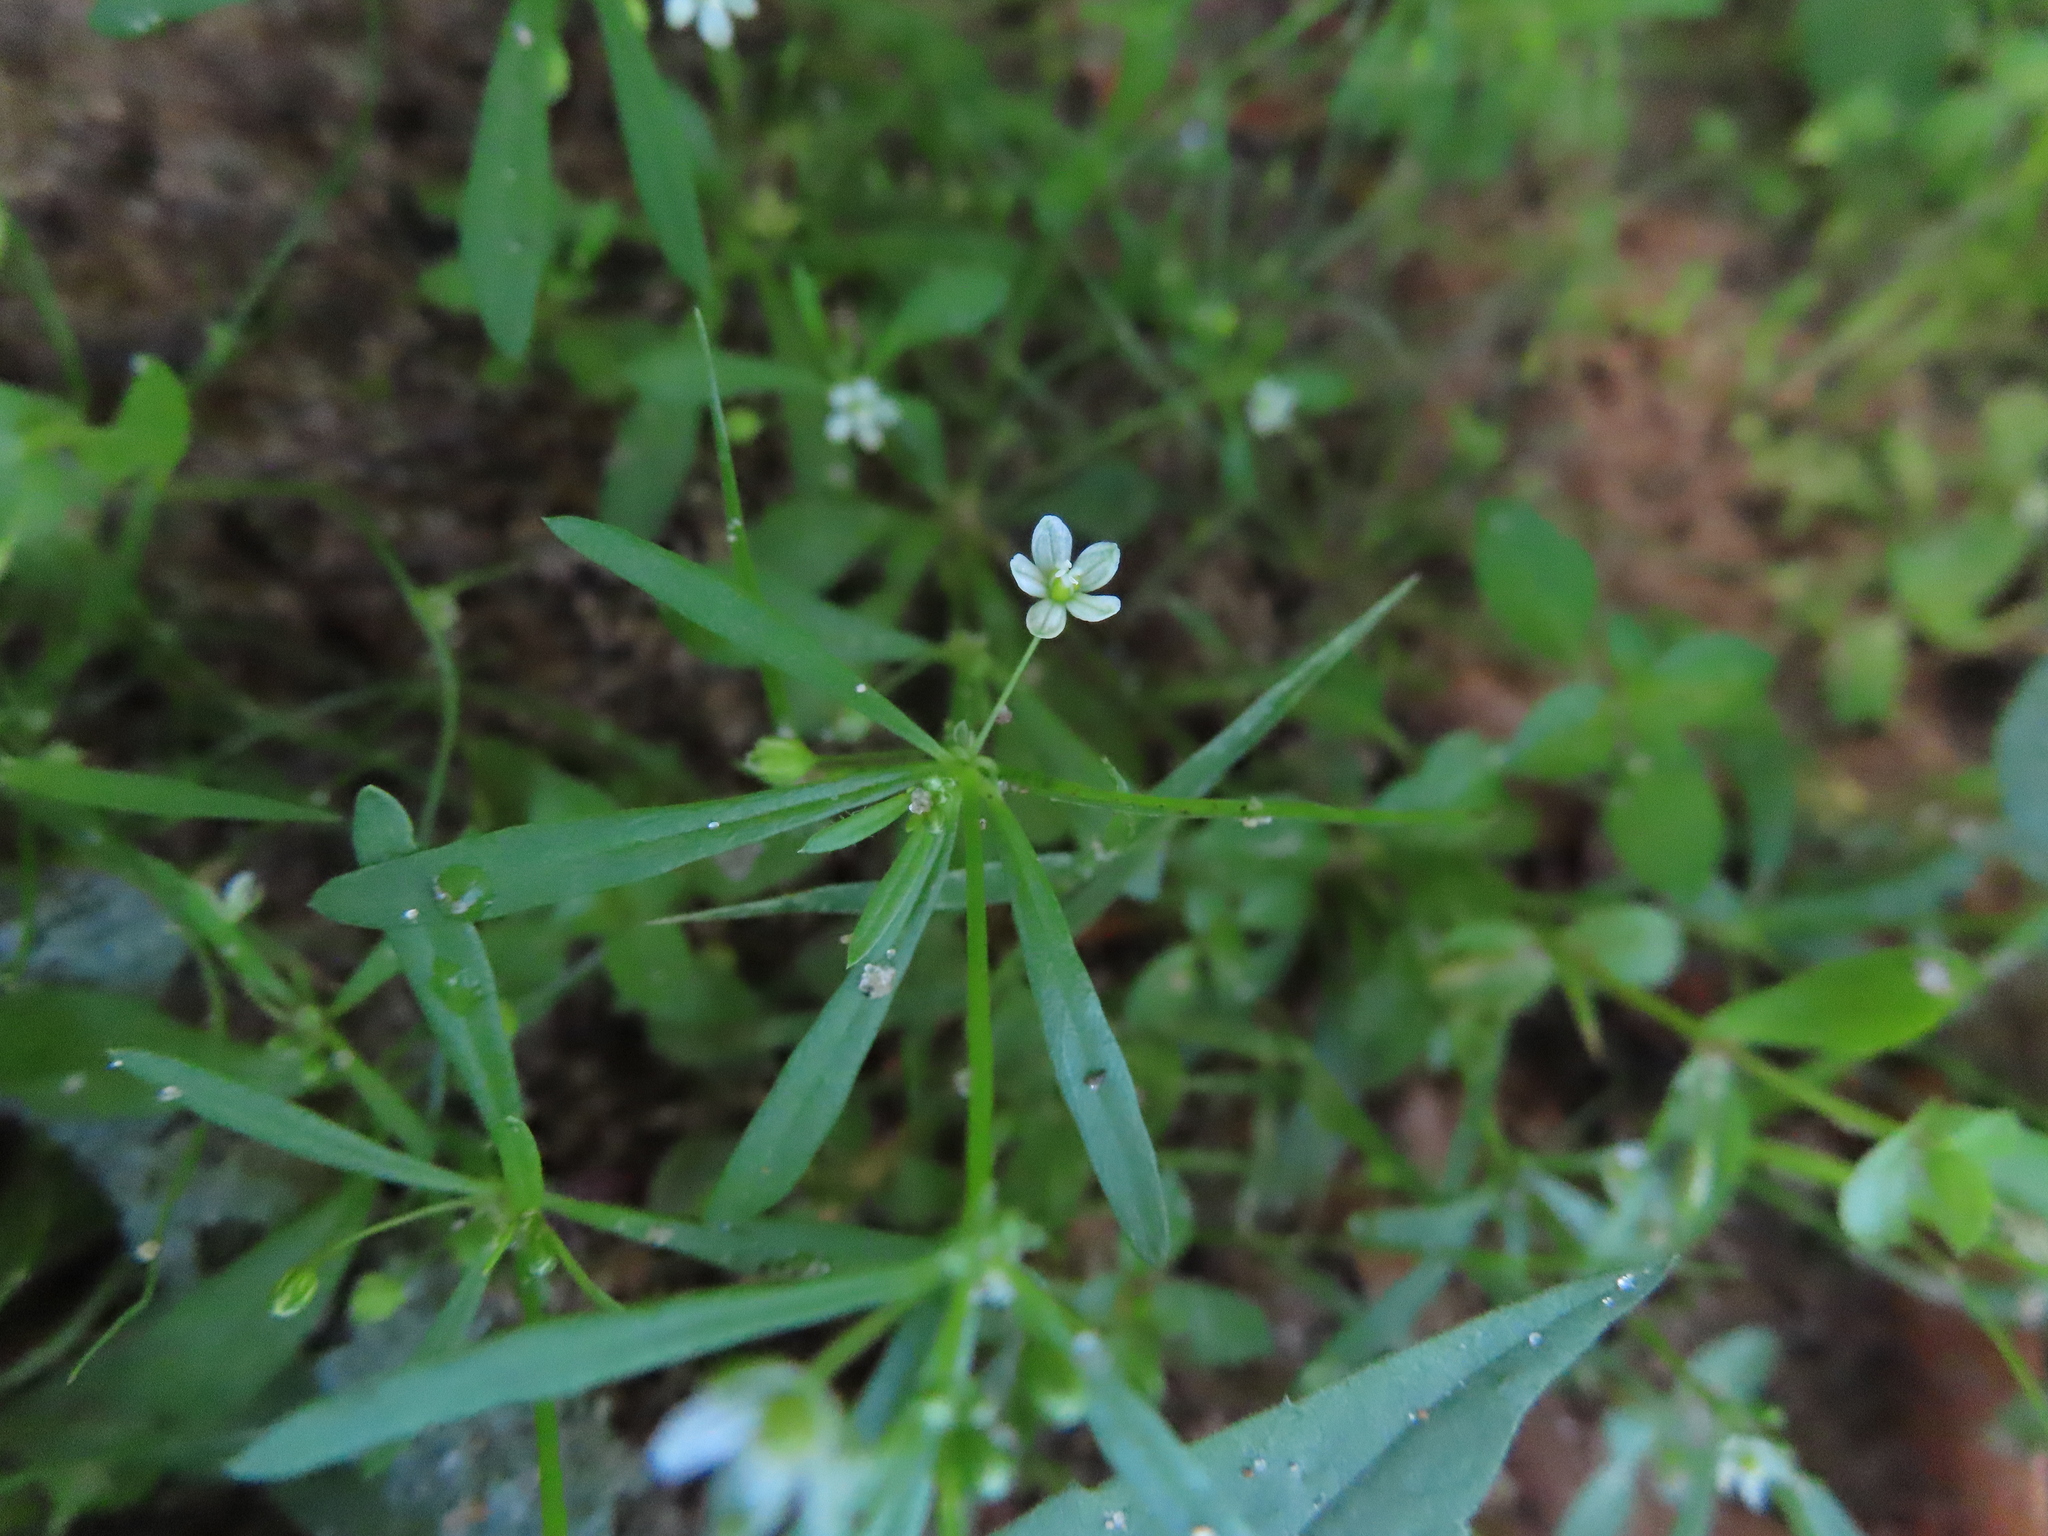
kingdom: Plantae
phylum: Tracheophyta
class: Magnoliopsida
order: Caryophyllales
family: Molluginaceae
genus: Mollugo
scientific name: Mollugo verticillata
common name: Green carpetweed
